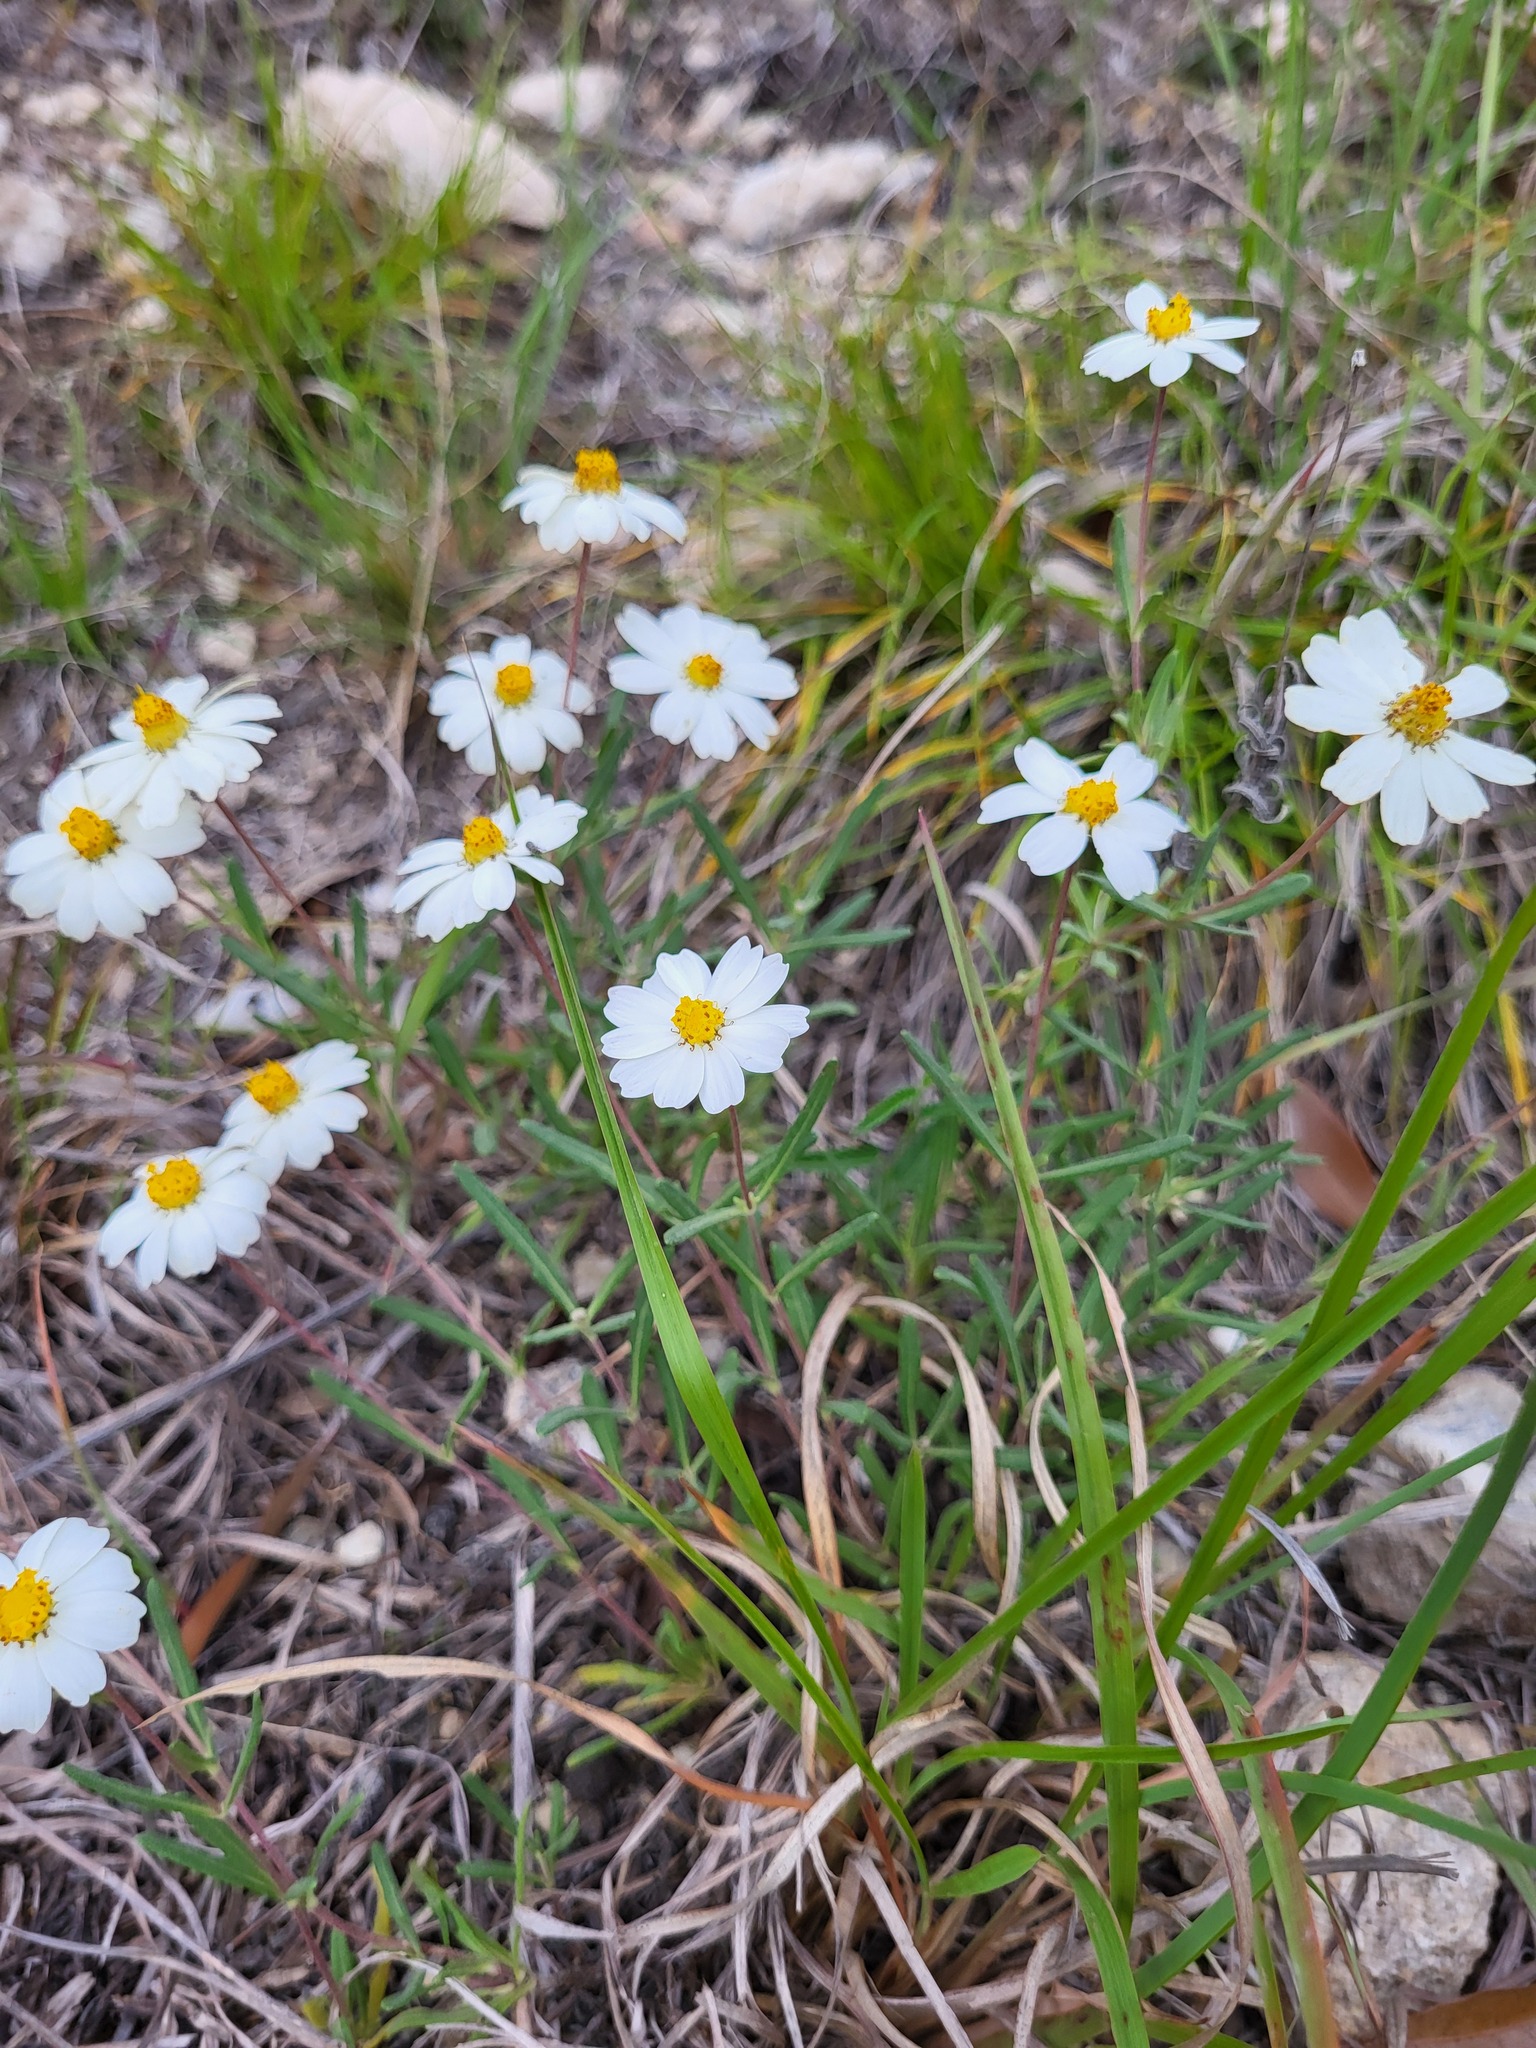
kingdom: Plantae
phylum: Tracheophyta
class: Magnoliopsida
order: Asterales
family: Asteraceae
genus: Melampodium
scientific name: Melampodium leucanthum
